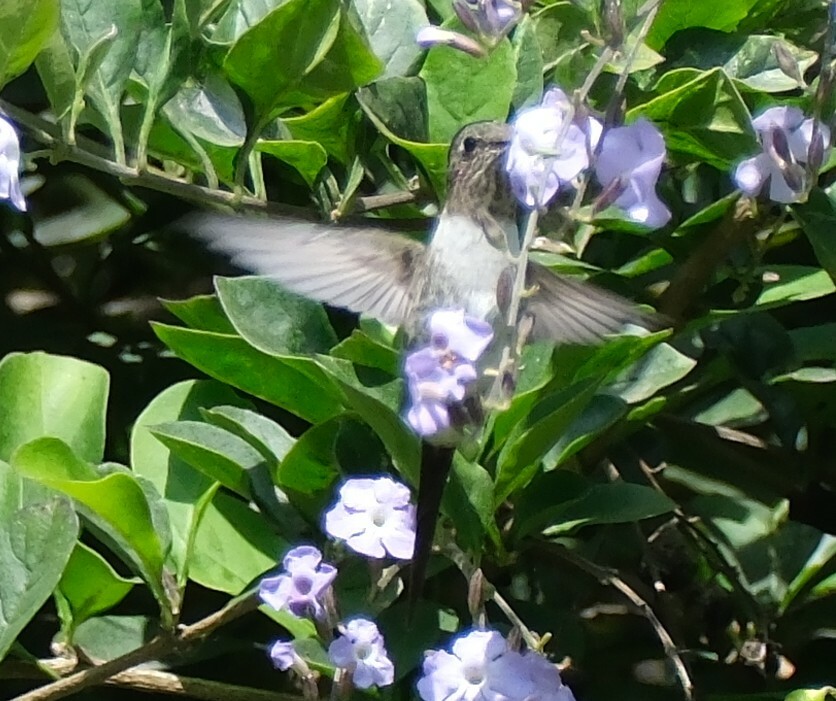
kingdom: Animalia
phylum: Chordata
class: Aves
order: Apodiformes
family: Trochilidae
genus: Thaumastura
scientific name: Thaumastura cora
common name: Peruvian sheartail
